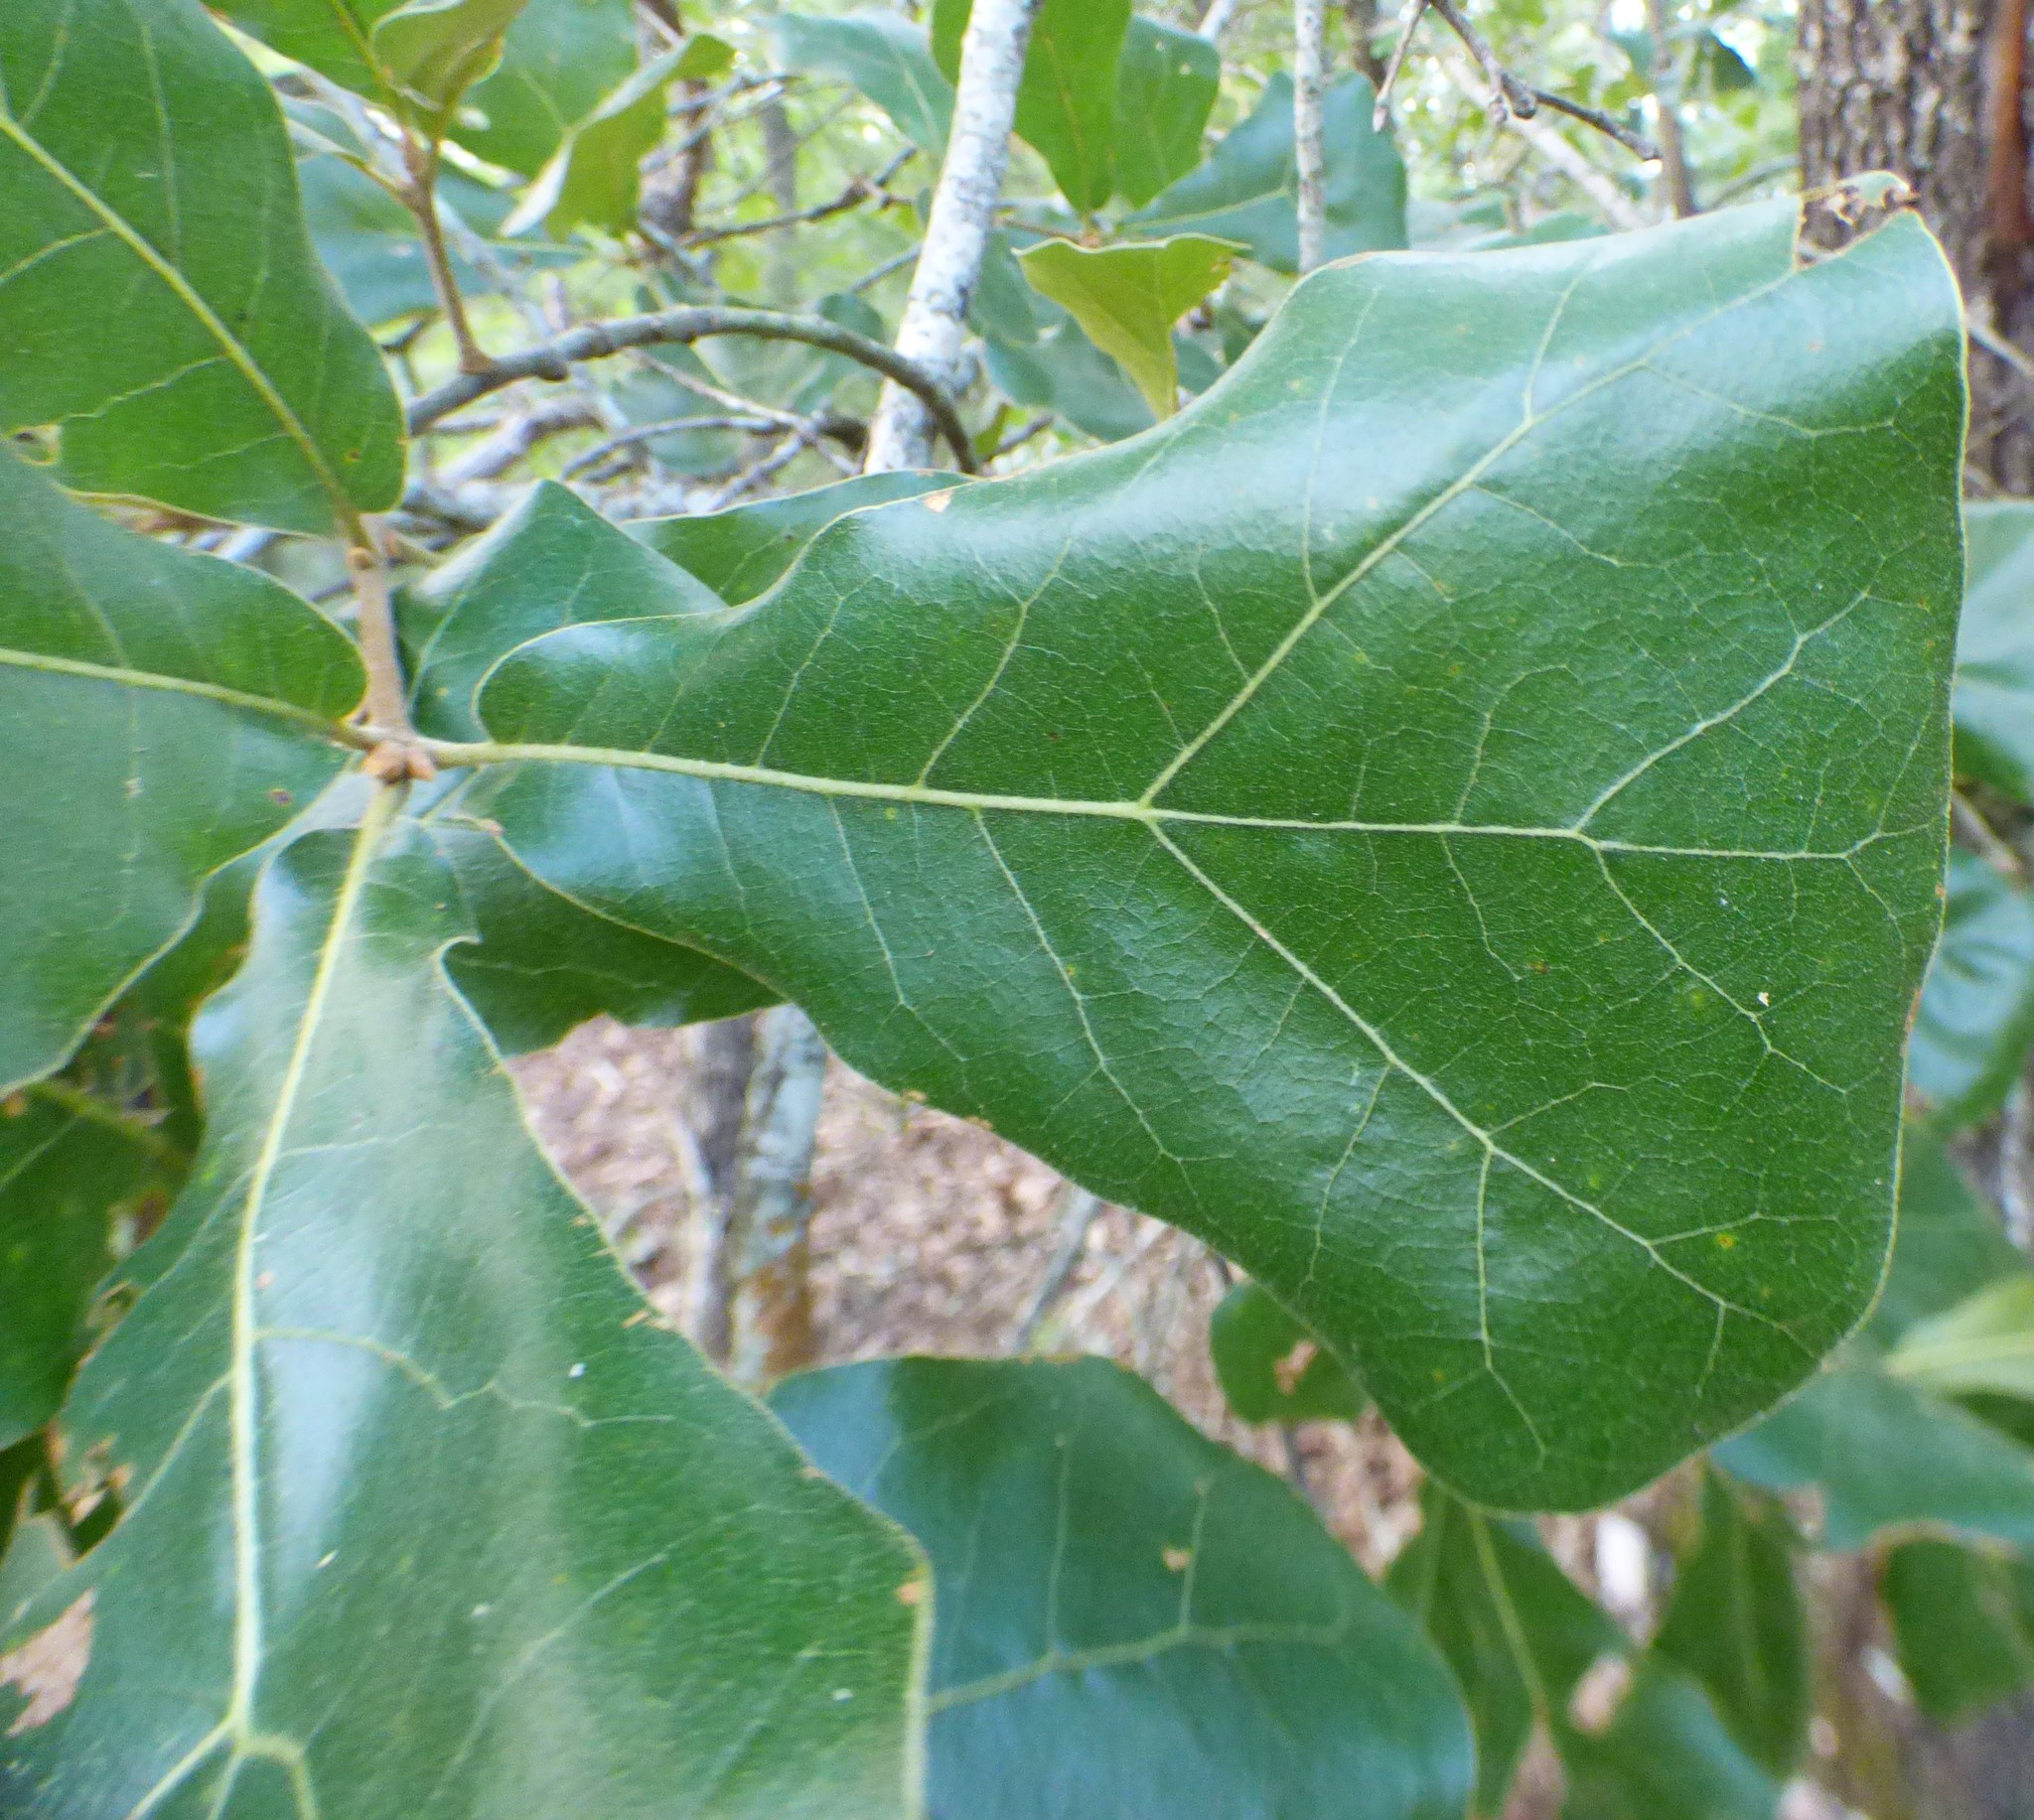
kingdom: Plantae
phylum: Tracheophyta
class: Magnoliopsida
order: Fagales
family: Fagaceae
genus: Quercus
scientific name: Quercus marilandica
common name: Blackjack oak
